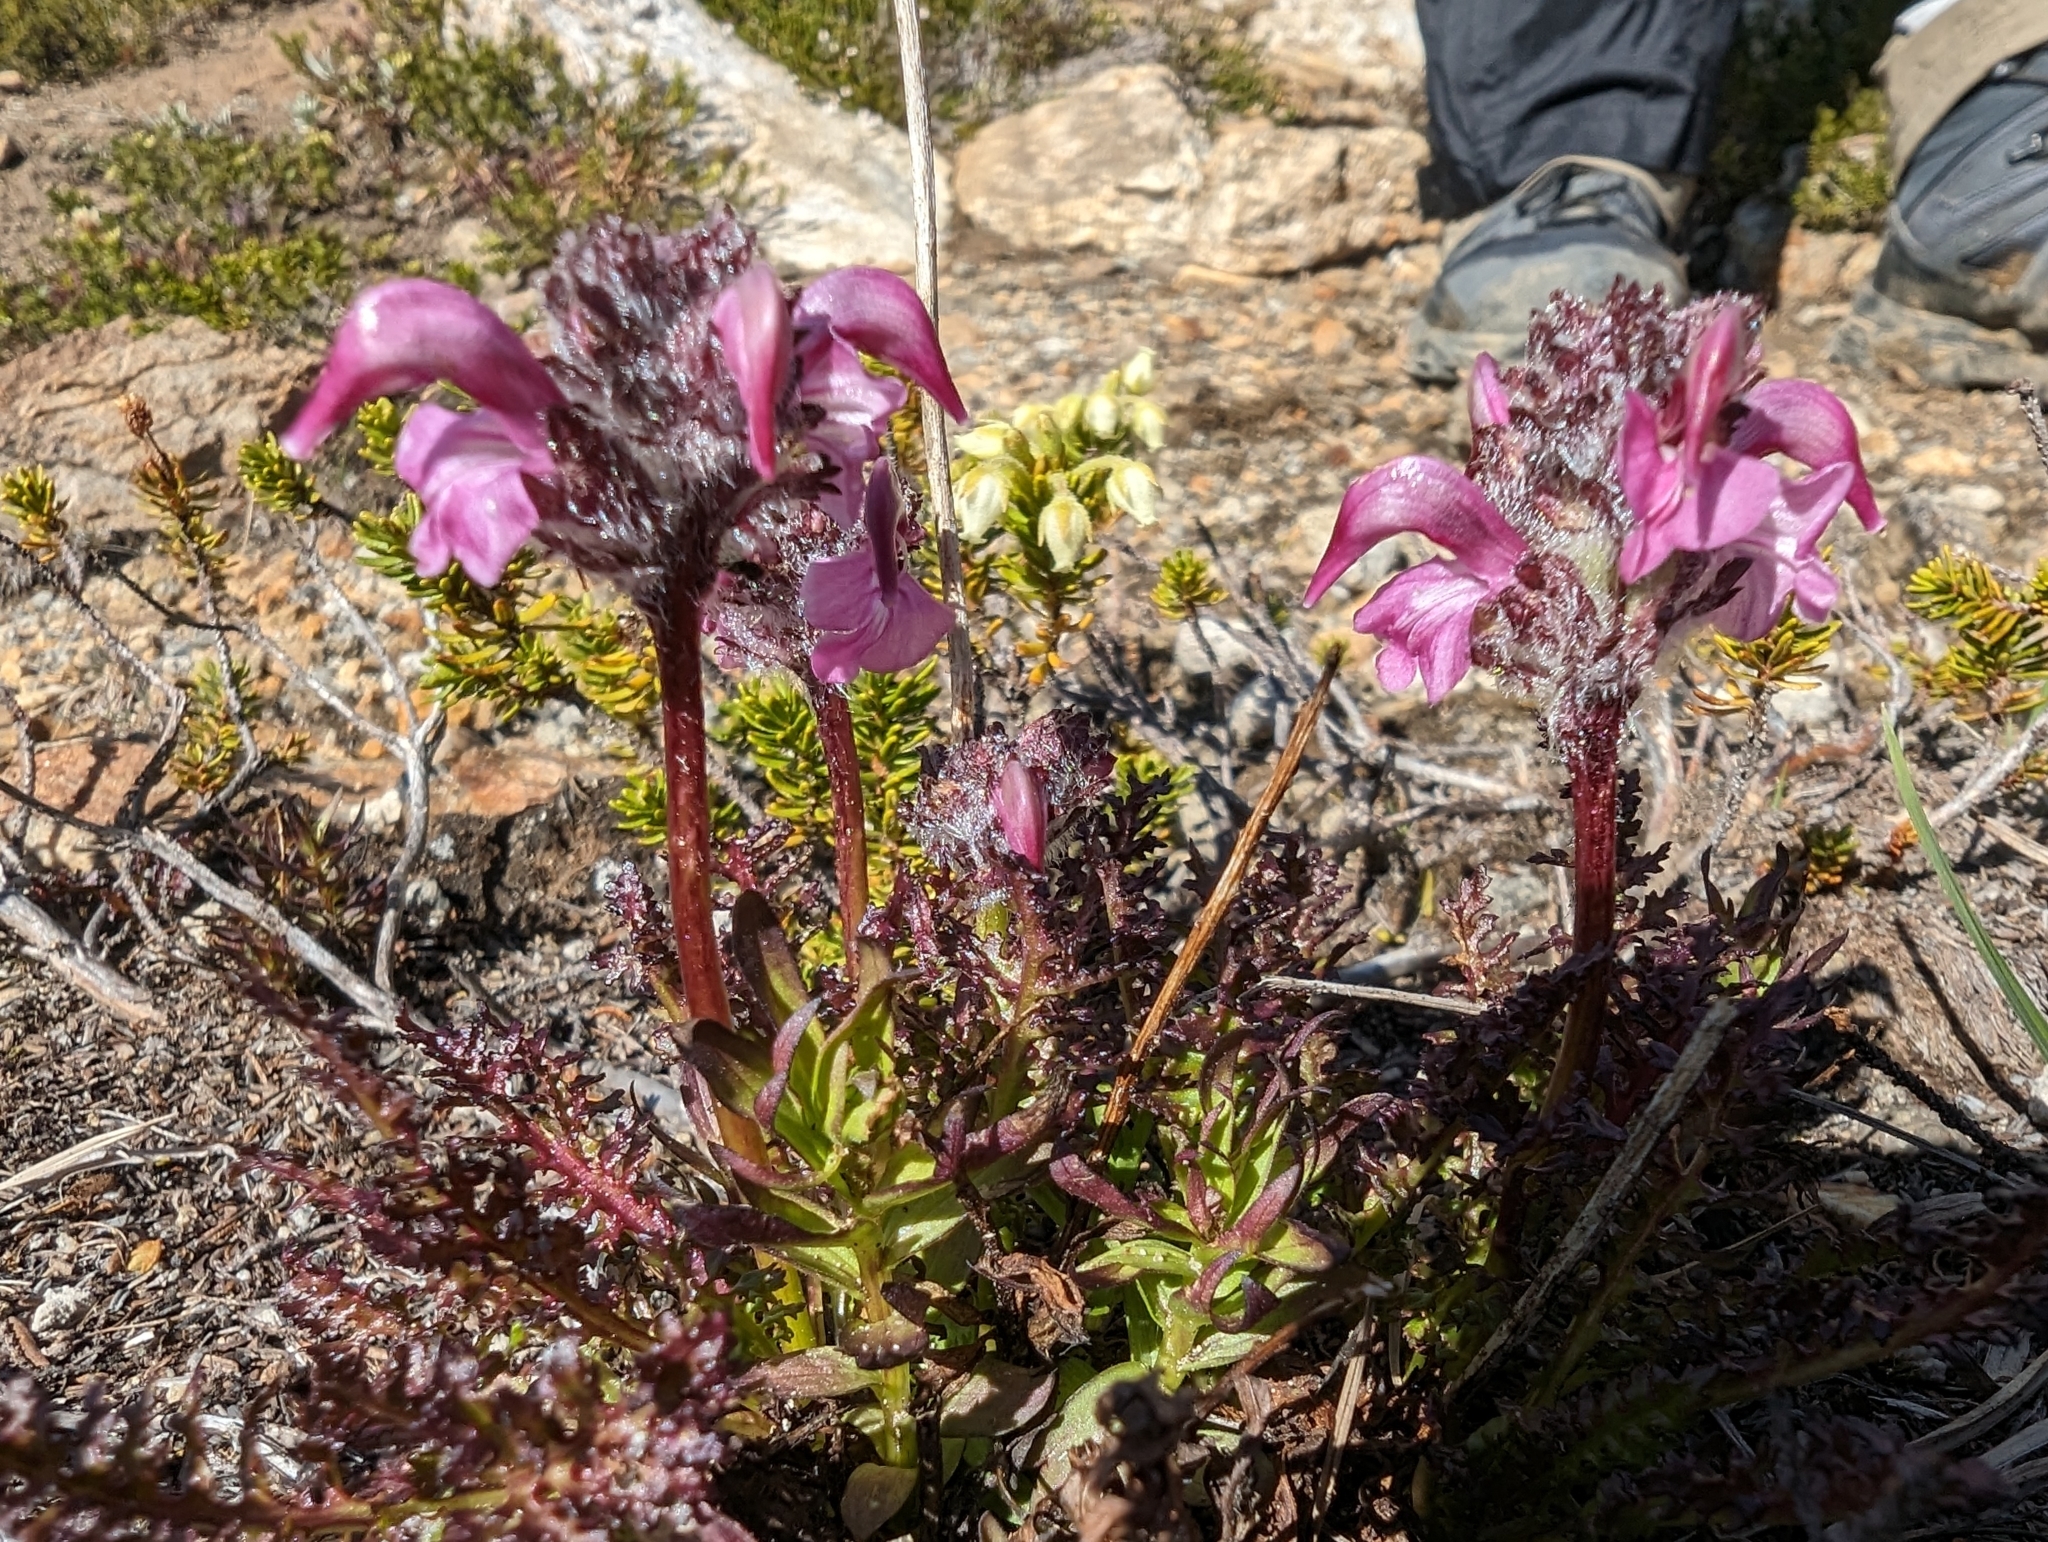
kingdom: Plantae
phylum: Tracheophyta
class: Magnoliopsida
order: Lamiales
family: Orobanchaceae
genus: Pedicularis
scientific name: Pedicularis ornithorhynchos
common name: Bird's-beak lousewort
